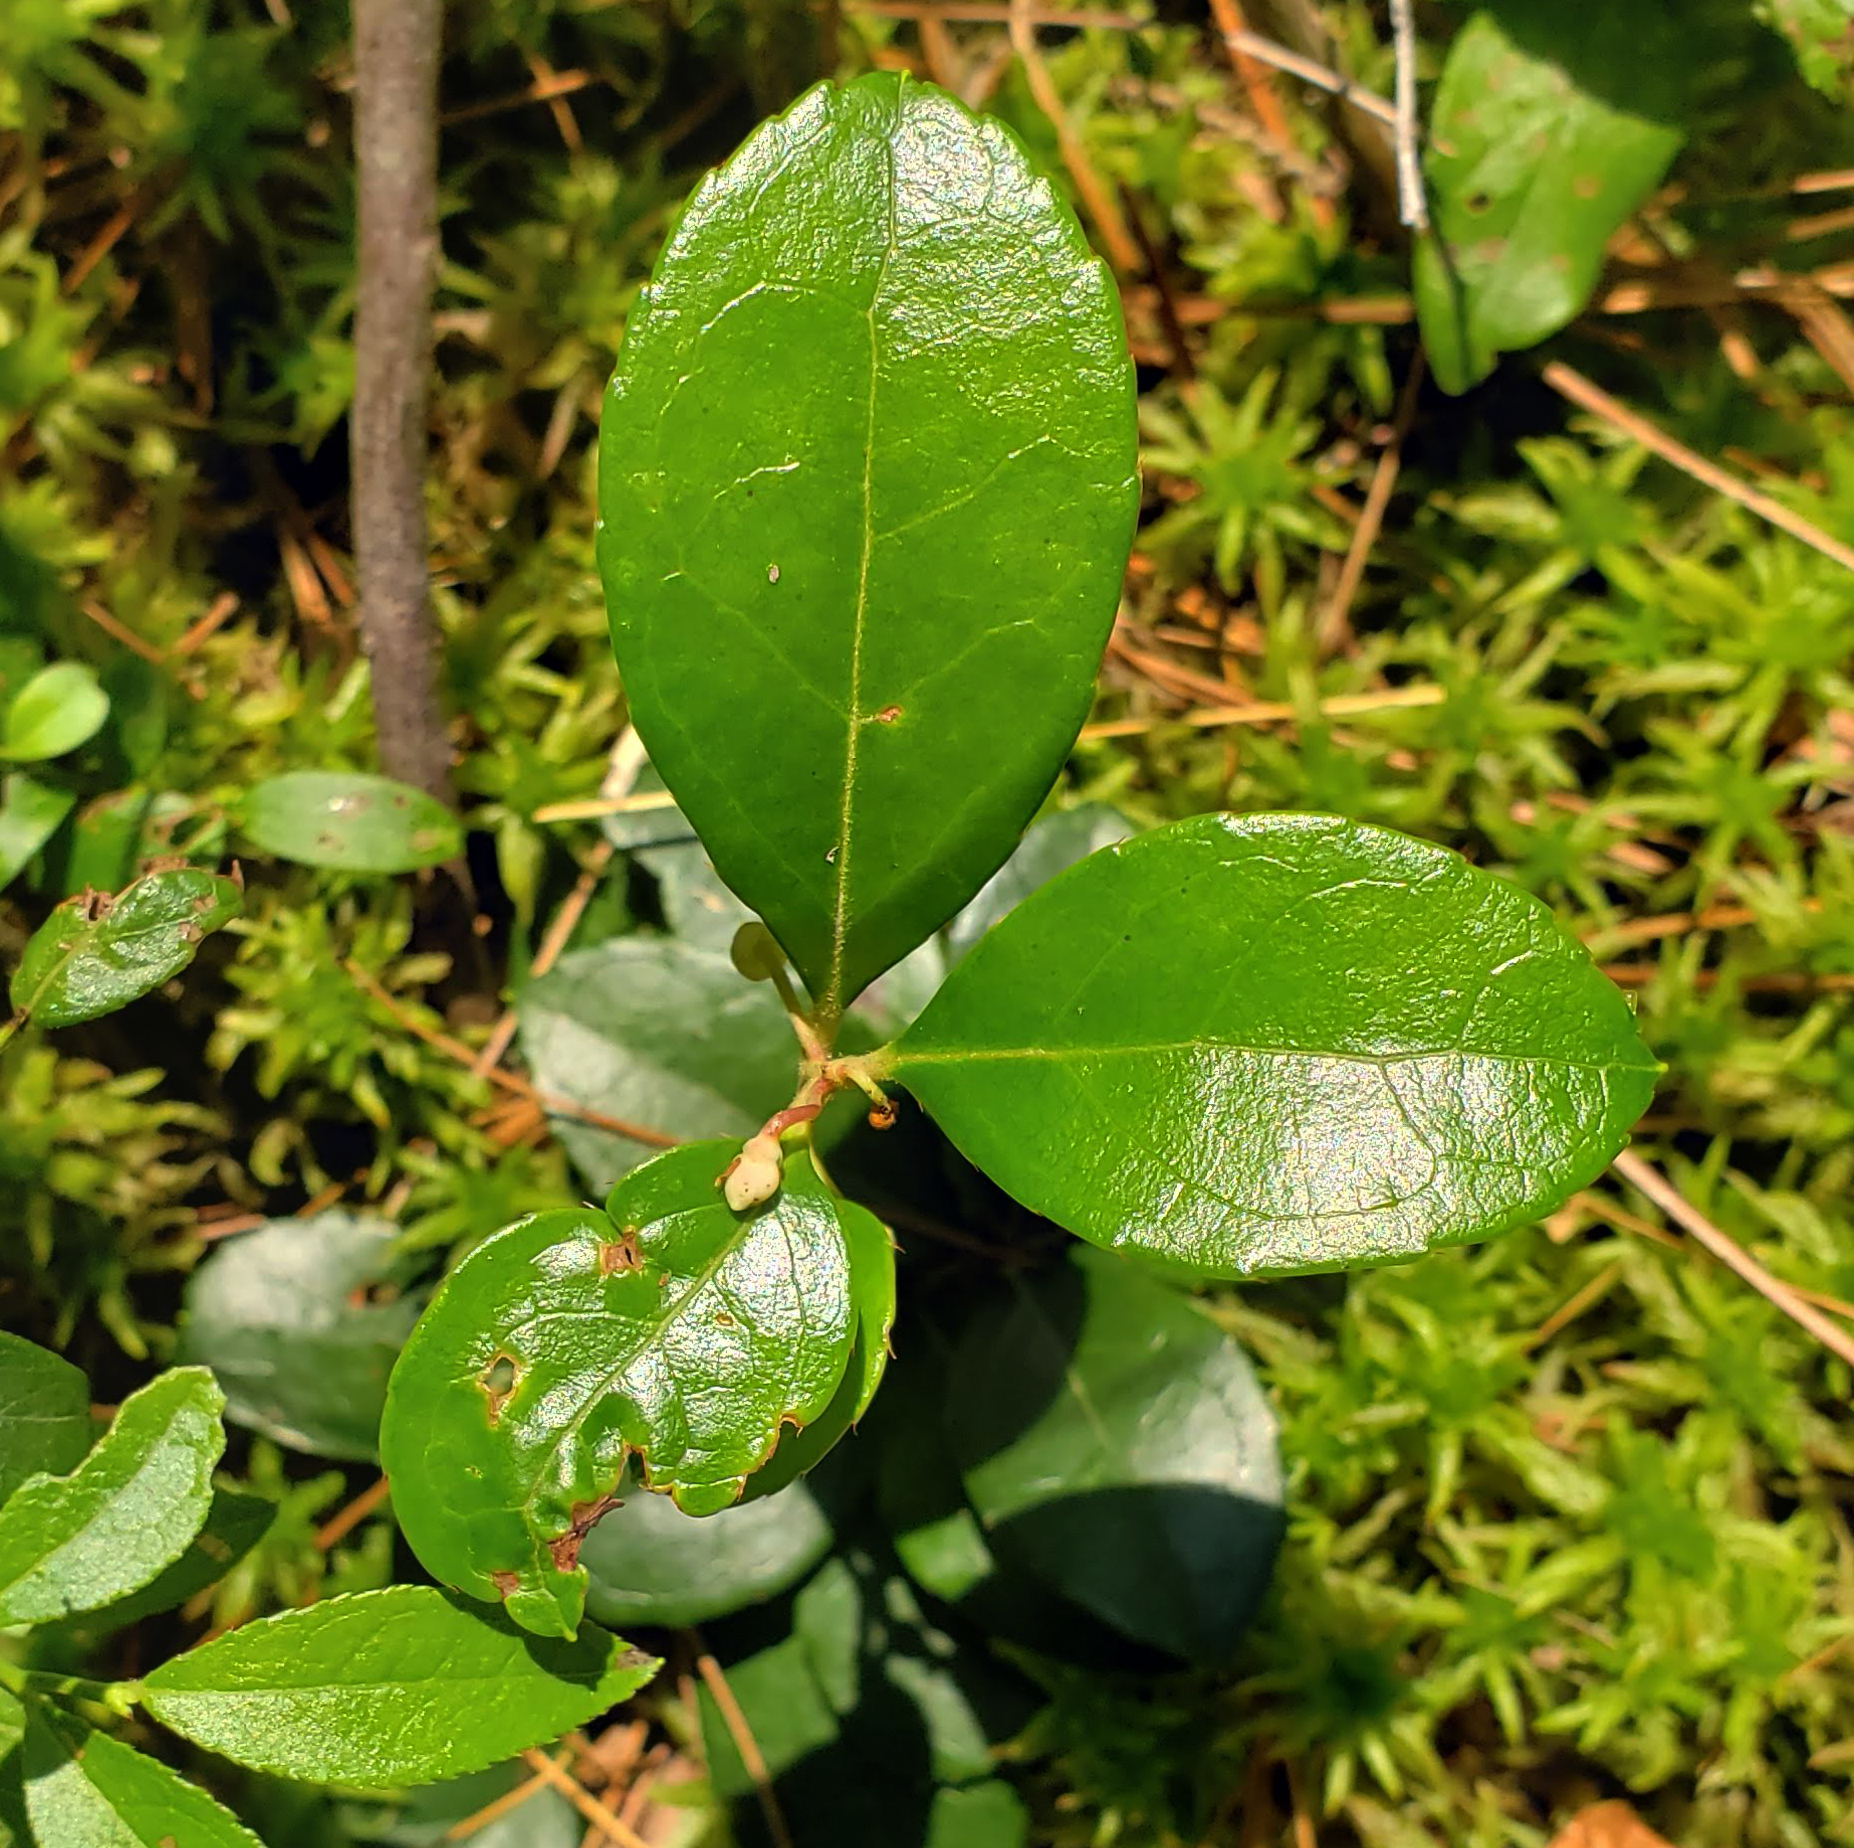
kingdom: Plantae
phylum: Tracheophyta
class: Magnoliopsida
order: Ericales
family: Ericaceae
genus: Gaultheria
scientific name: Gaultheria procumbens
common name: Checkerberry
